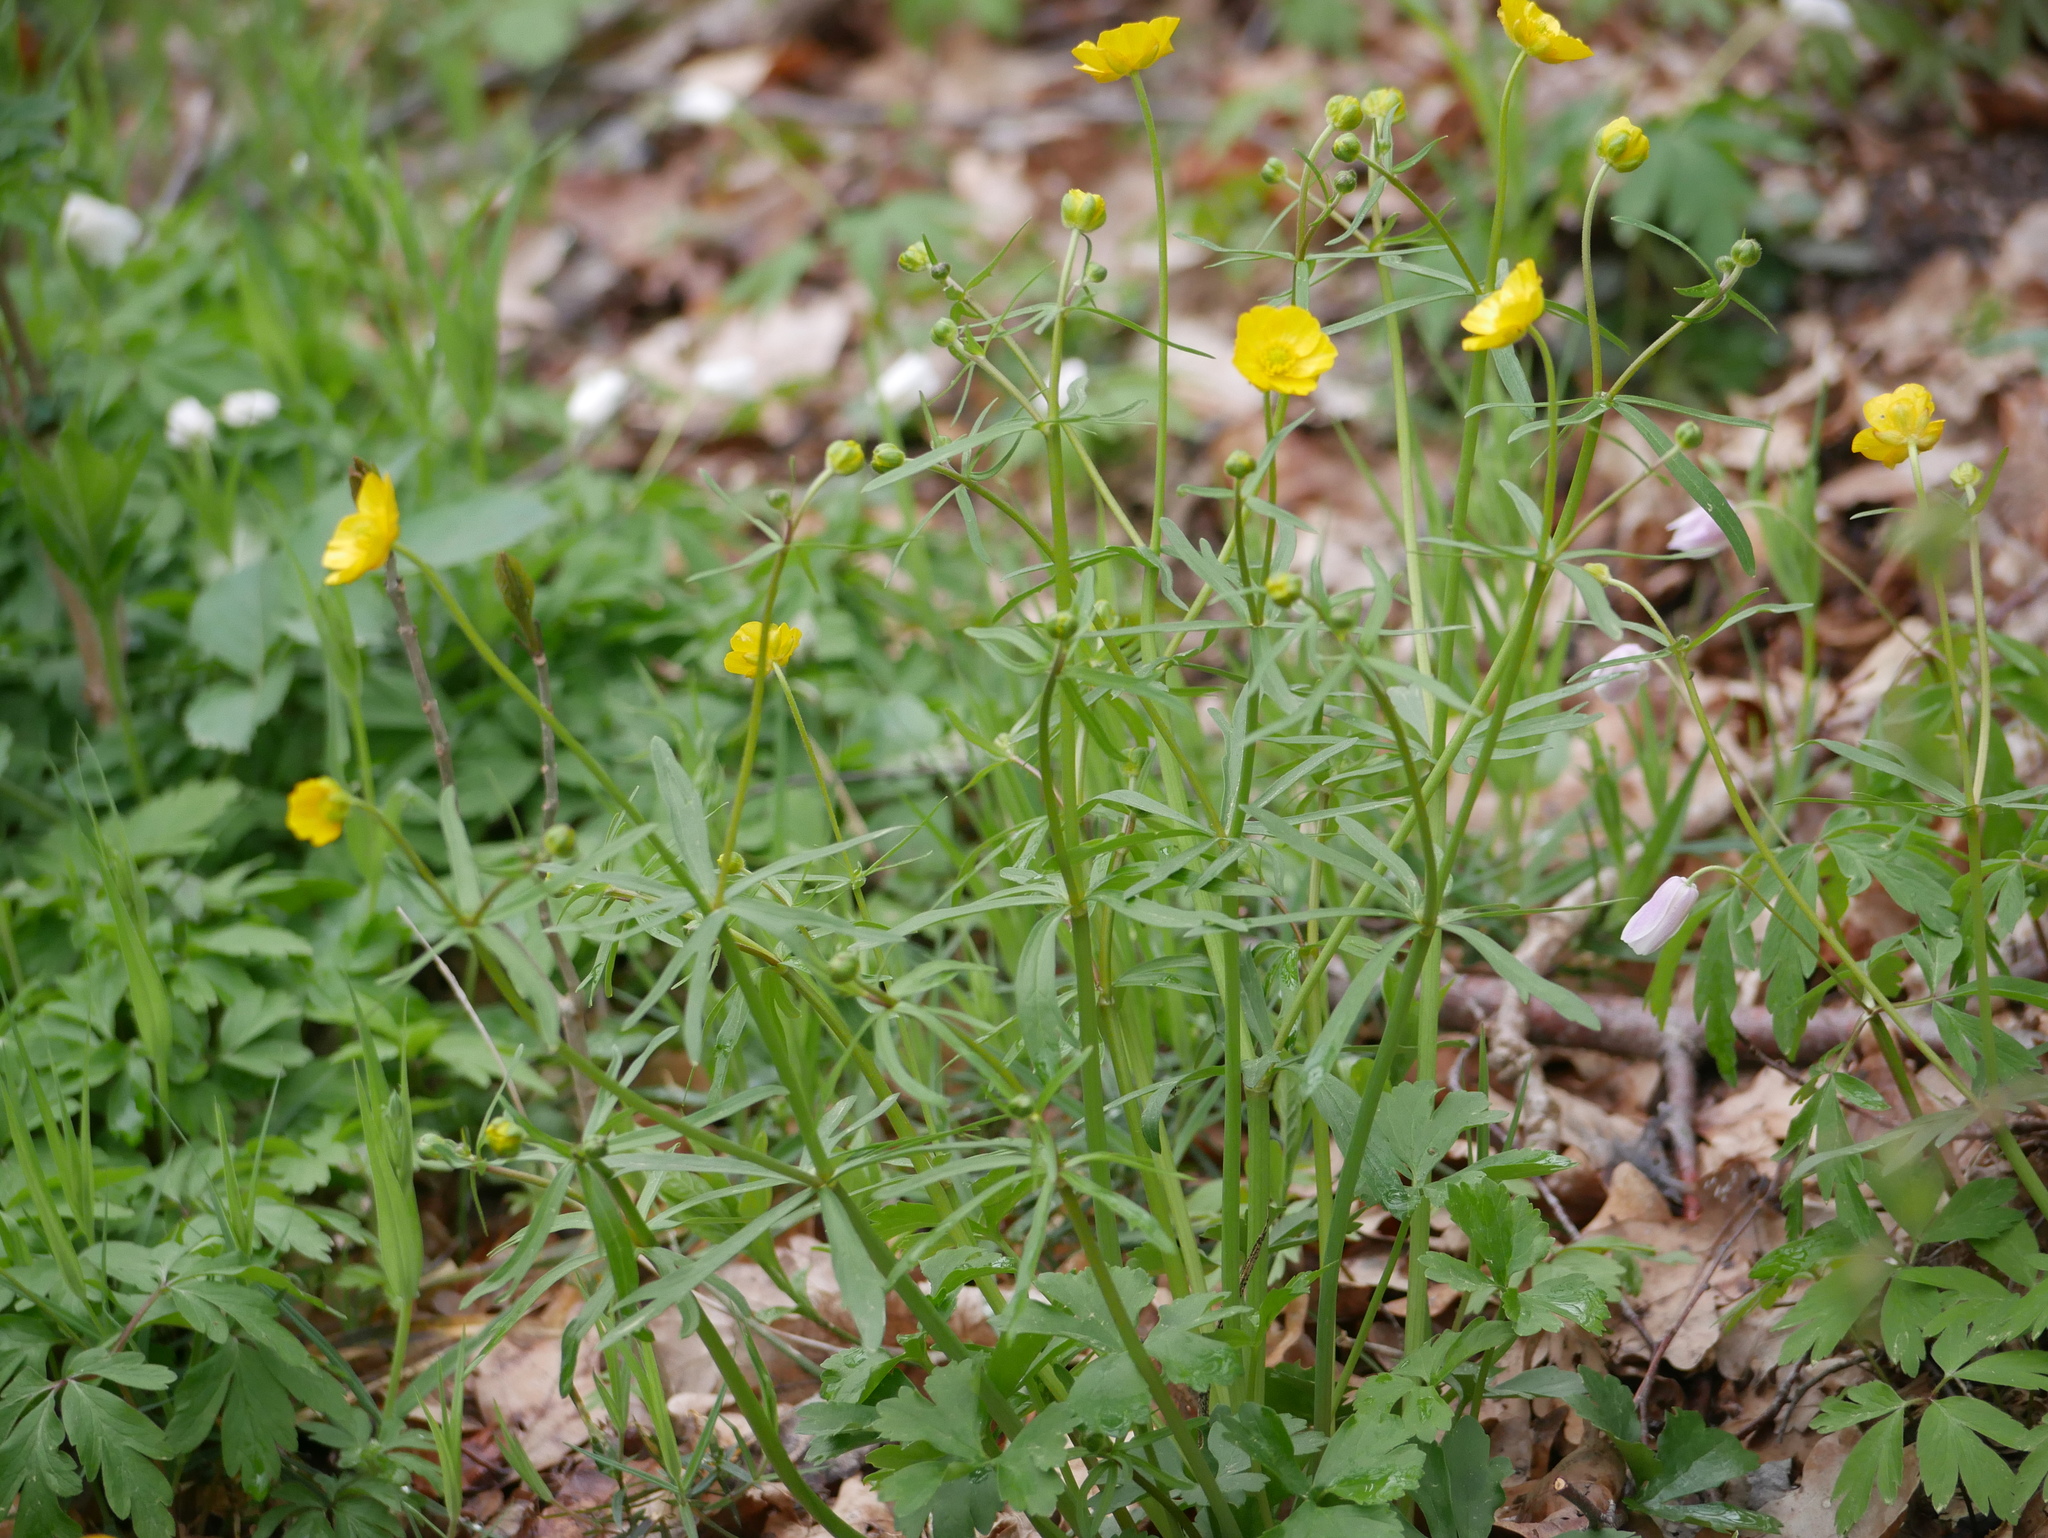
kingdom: Plantae
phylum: Tracheophyta
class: Magnoliopsida
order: Ranunculales
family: Ranunculaceae
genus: Ranunculus
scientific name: Ranunculus auricomus
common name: Goldilocks buttercup
